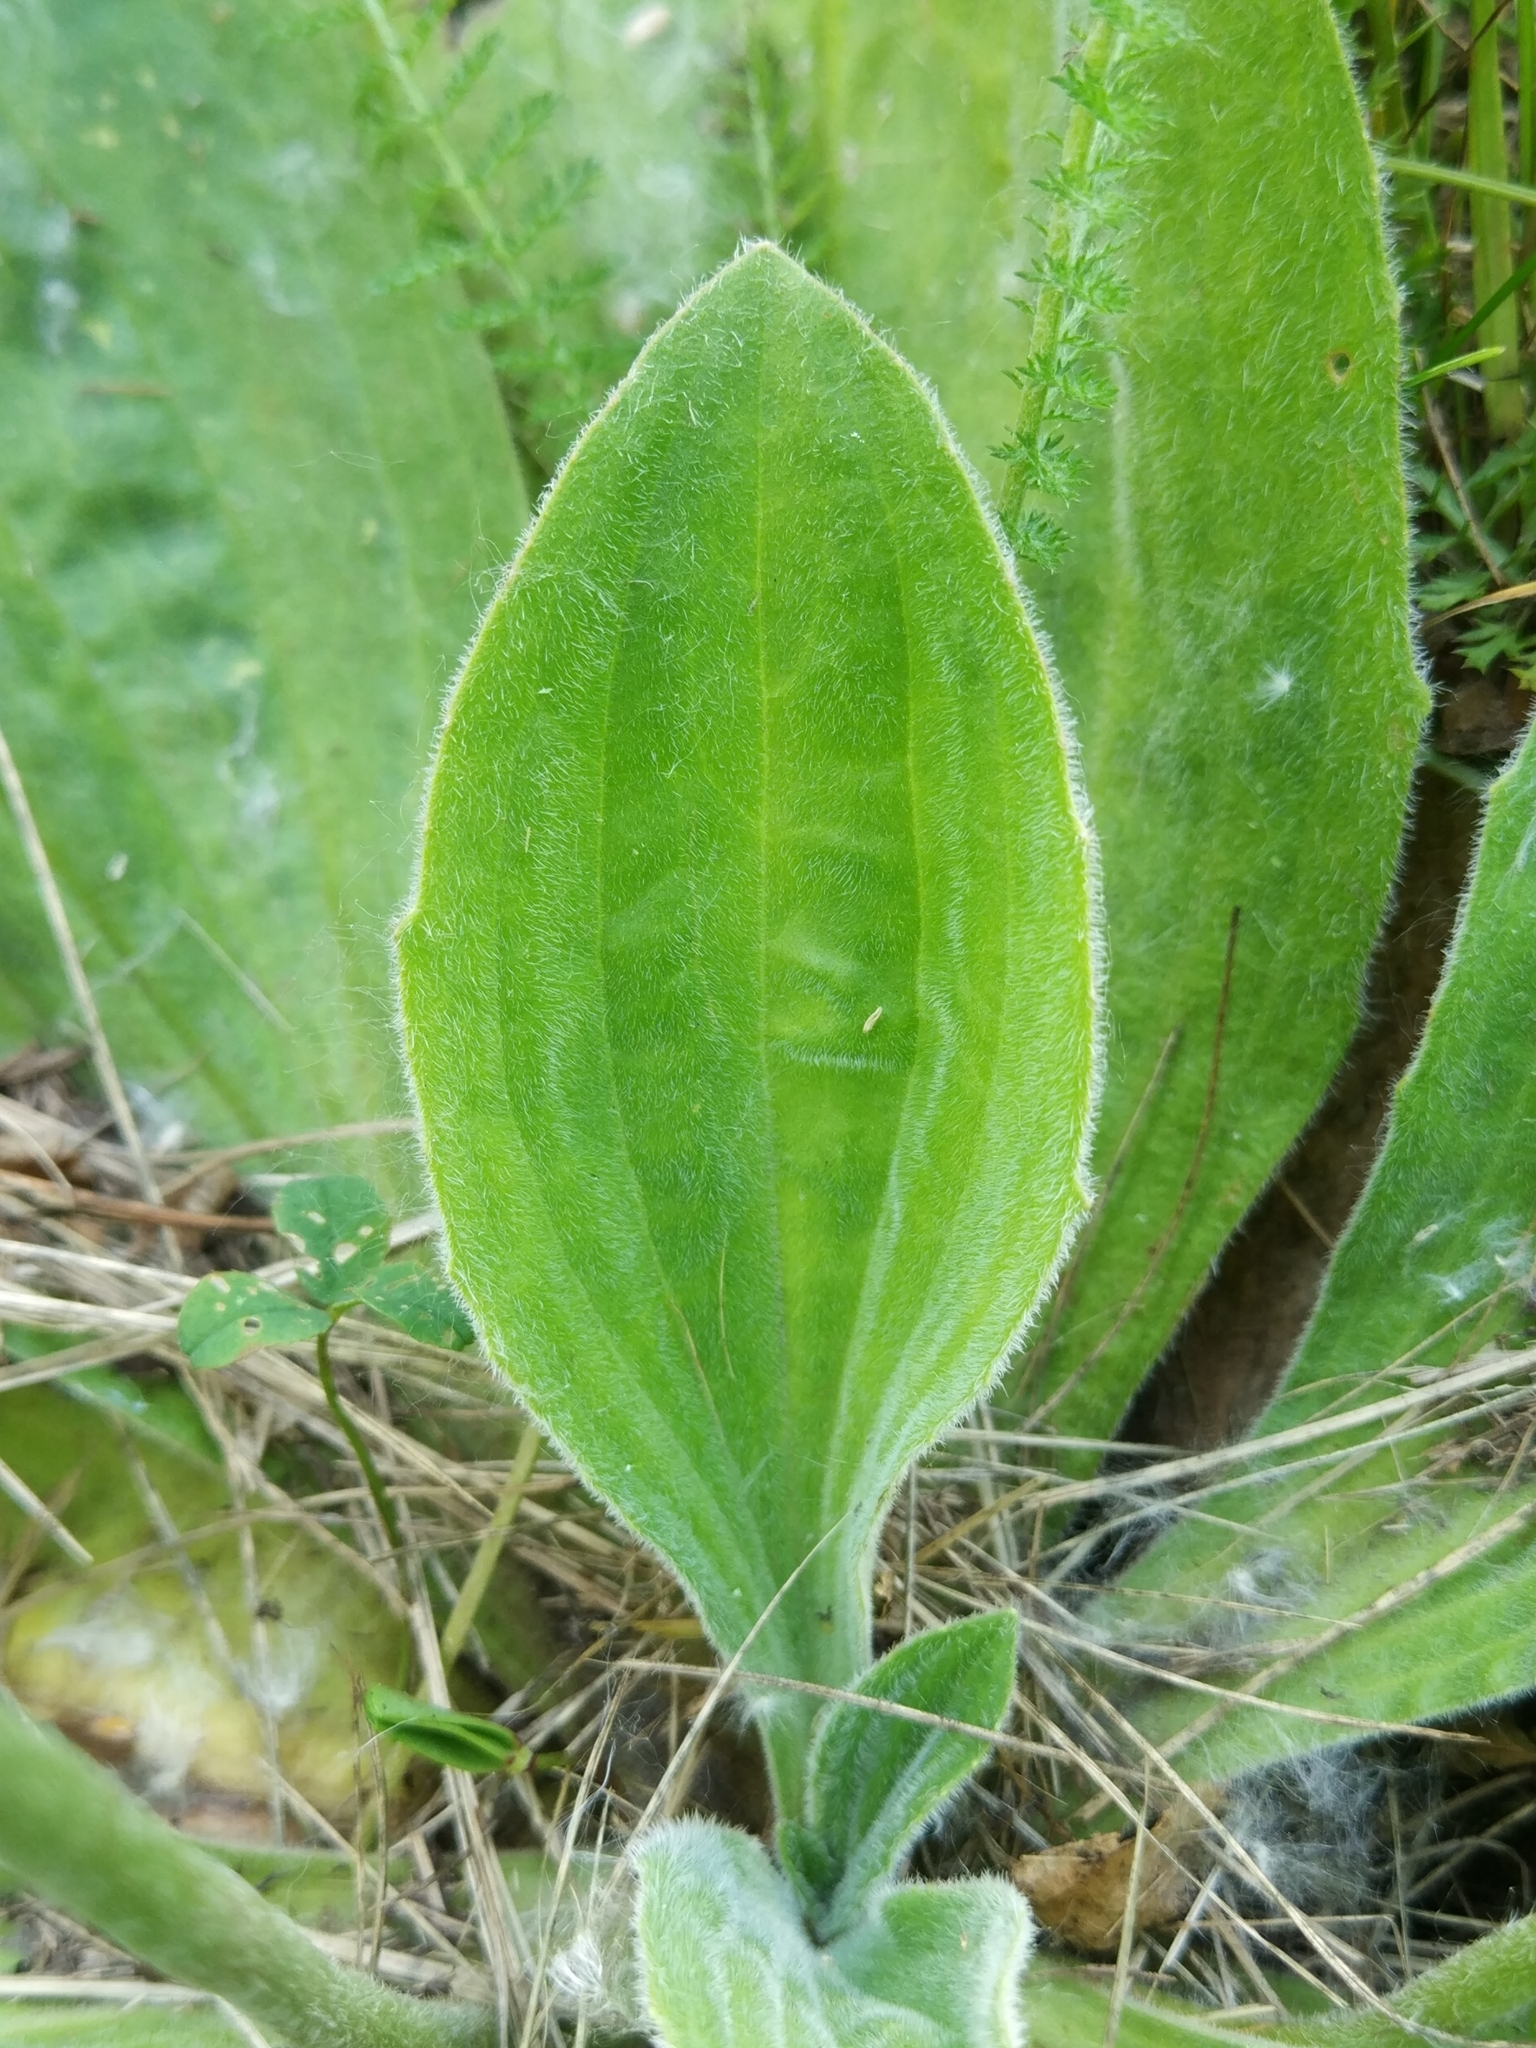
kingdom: Plantae
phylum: Tracheophyta
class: Magnoliopsida
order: Lamiales
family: Plantaginaceae
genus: Plantago
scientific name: Plantago media
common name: Hoary plantain
